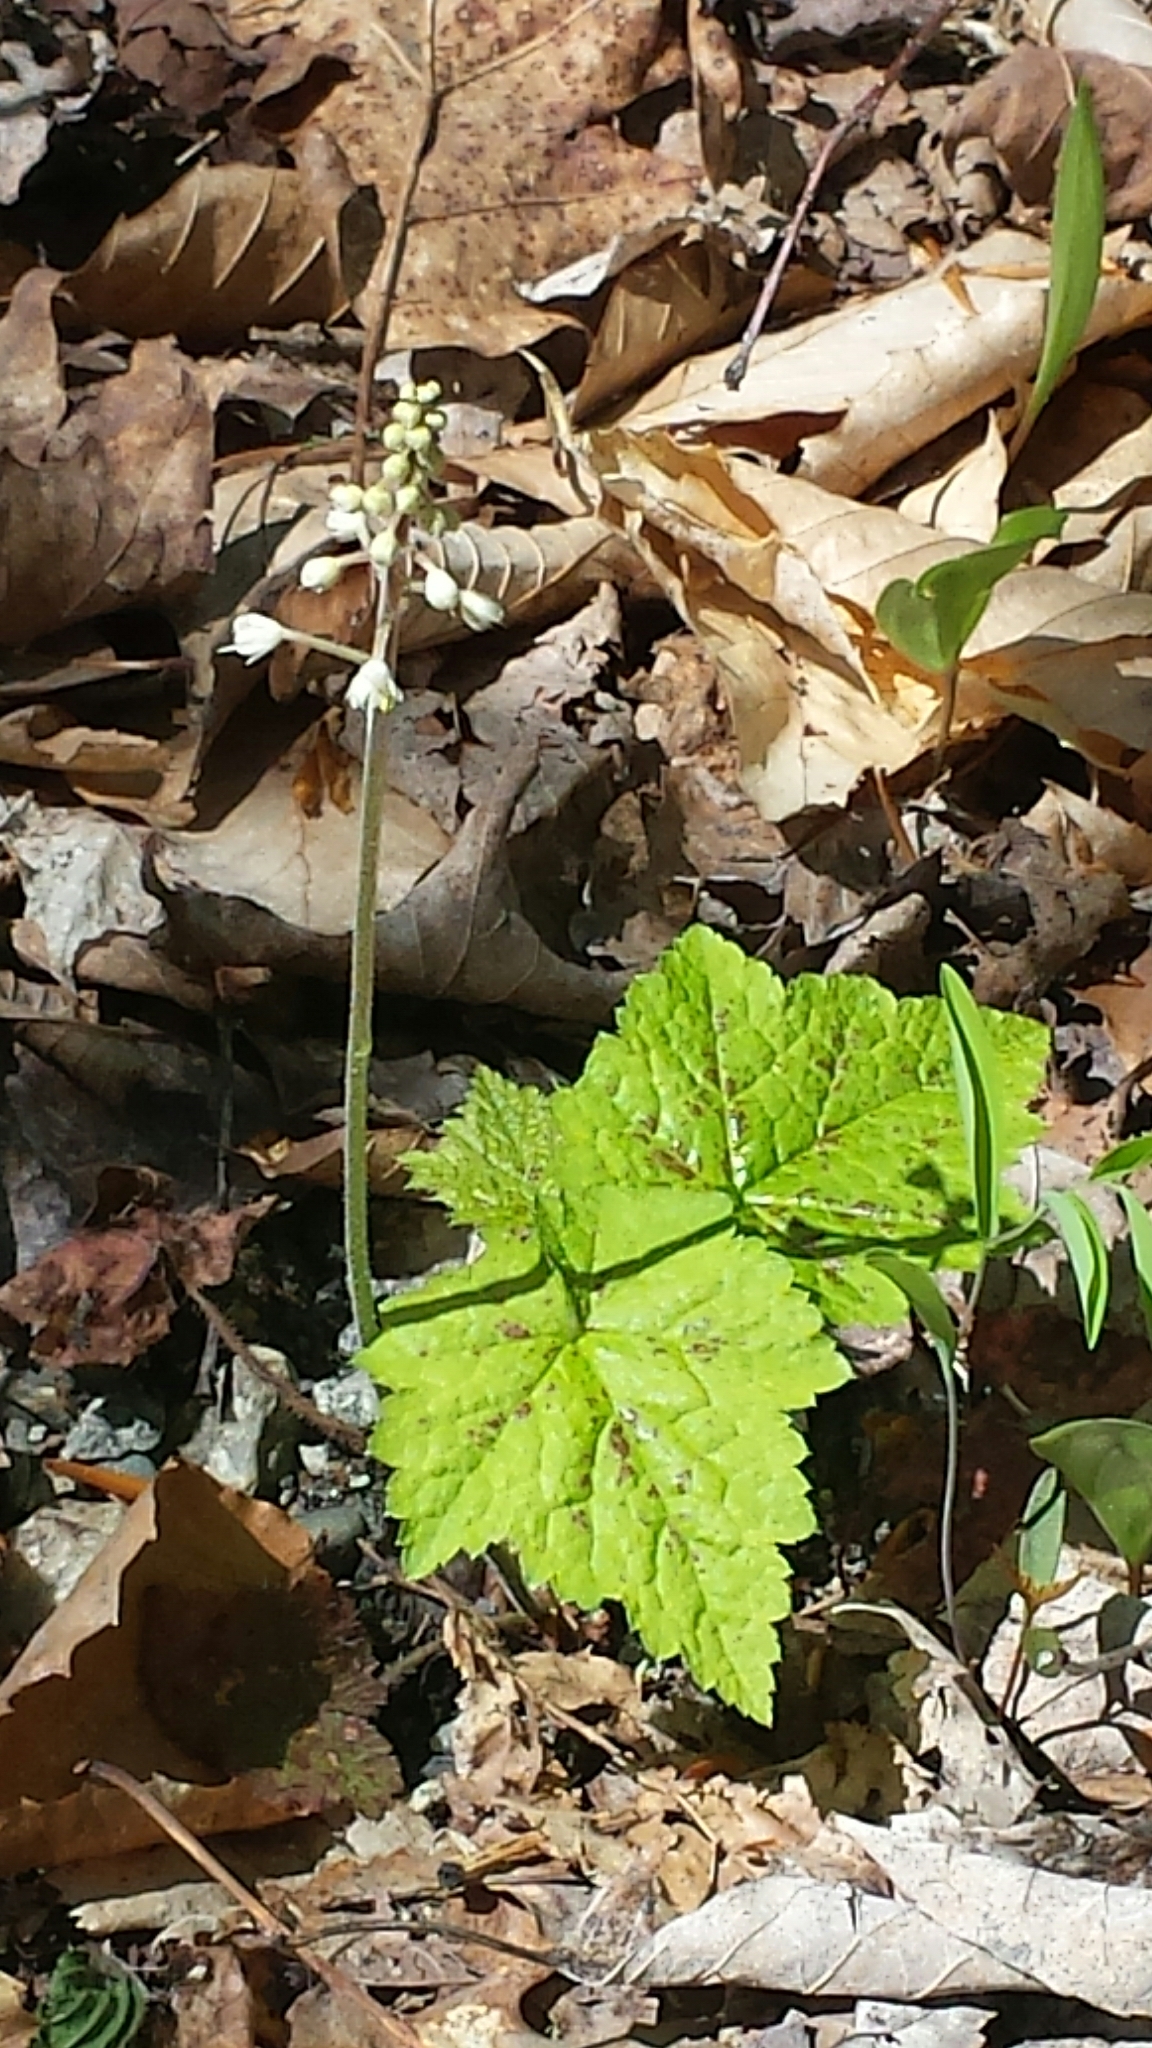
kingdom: Plantae
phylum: Tracheophyta
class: Magnoliopsida
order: Saxifragales
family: Saxifragaceae
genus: Tiarella
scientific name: Tiarella stolonifera
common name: Stoloniferous foamflower
